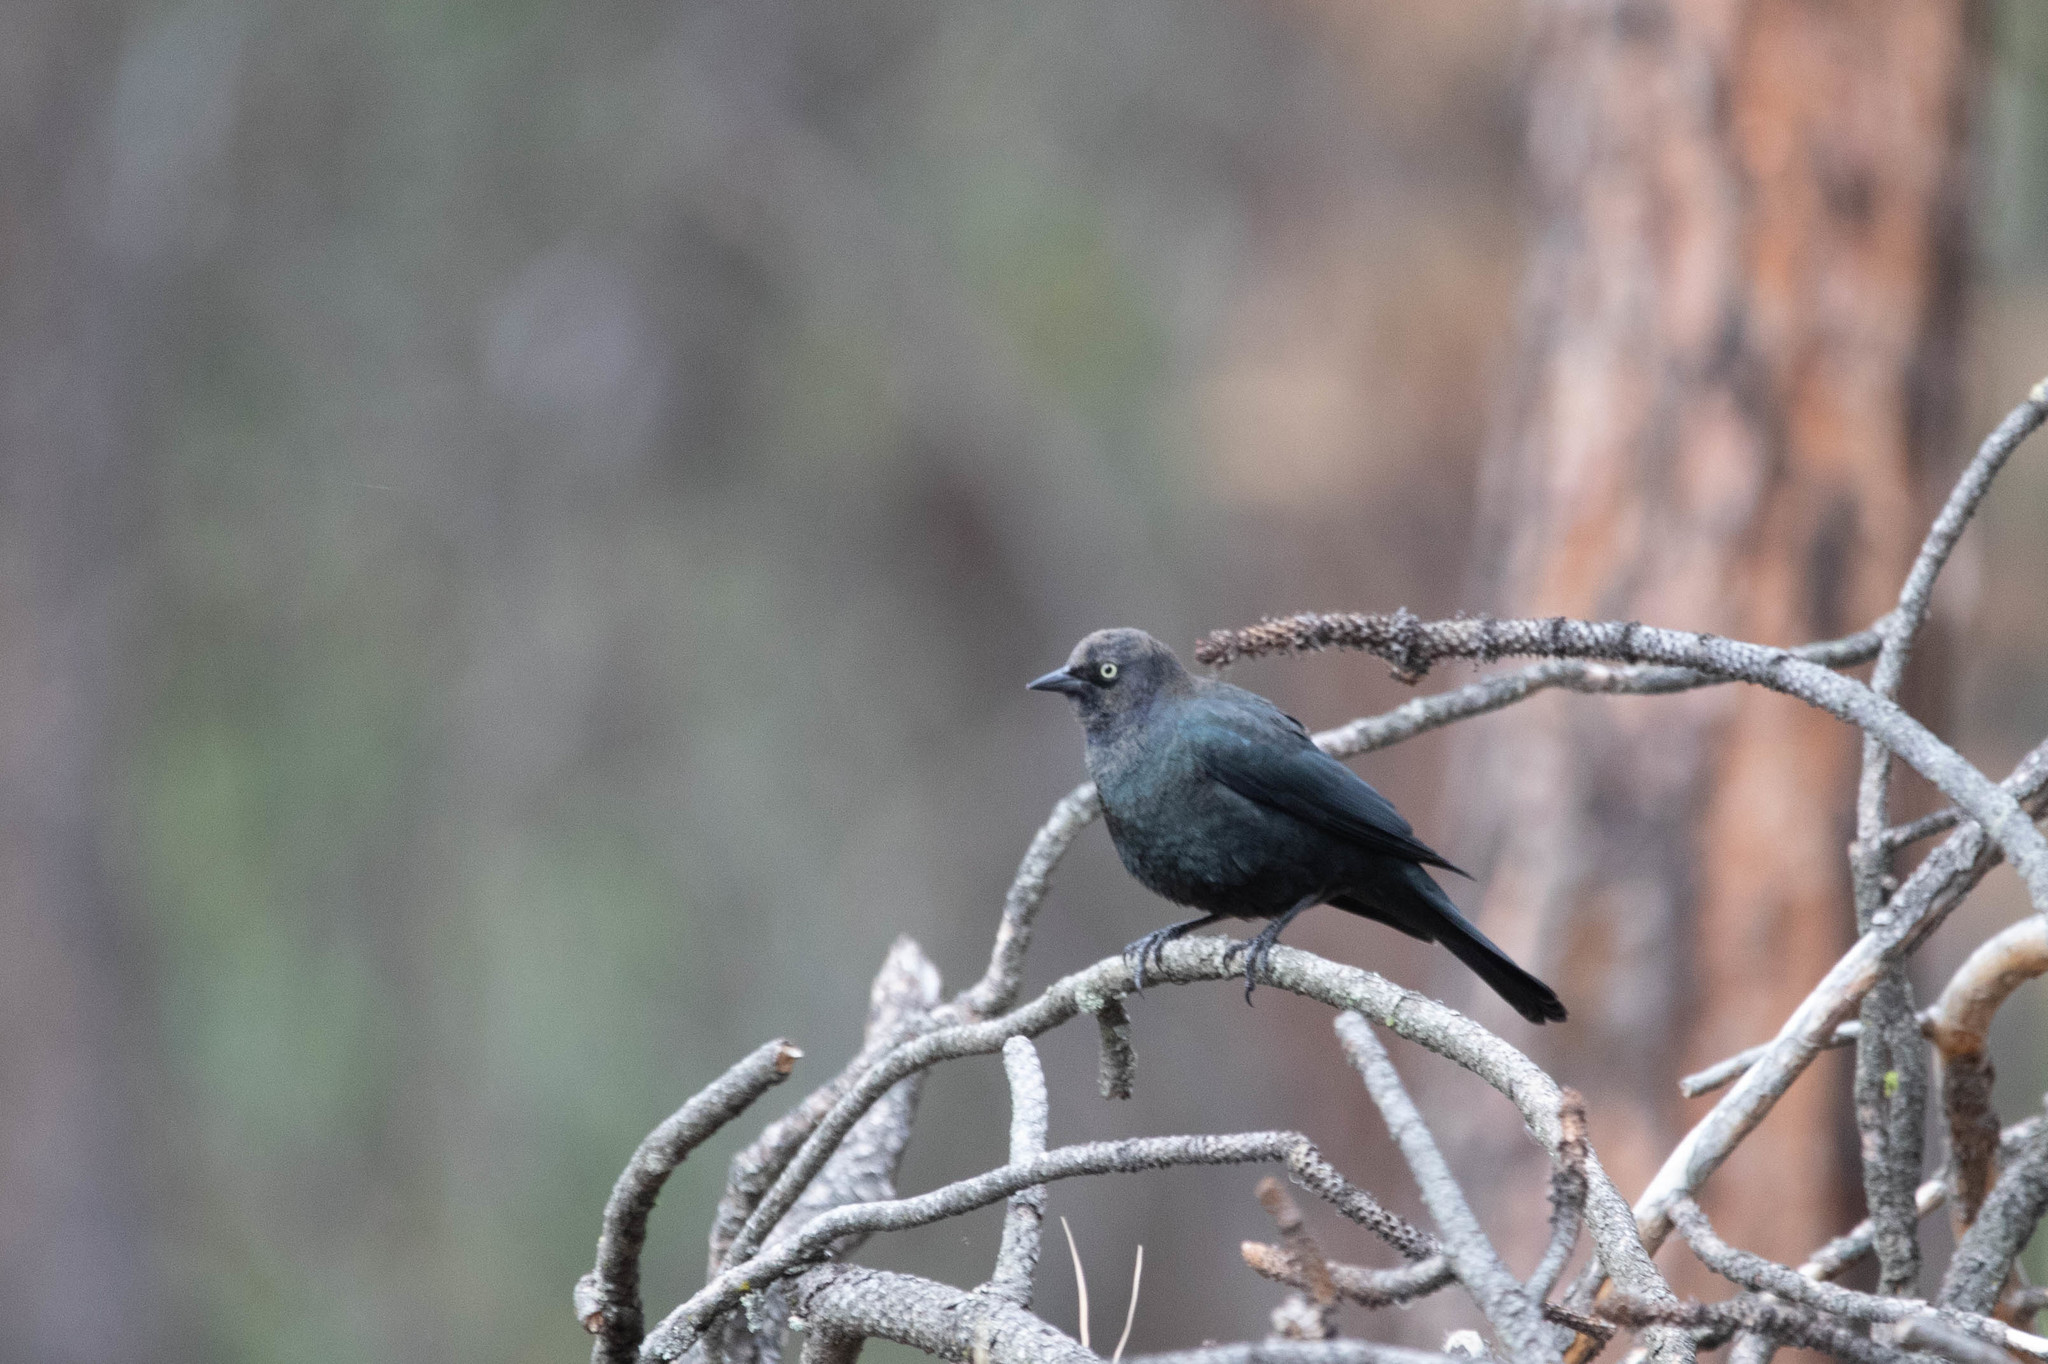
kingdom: Animalia
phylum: Chordata
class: Aves
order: Passeriformes
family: Icteridae
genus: Euphagus
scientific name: Euphagus cyanocephalus
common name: Brewer's blackbird
